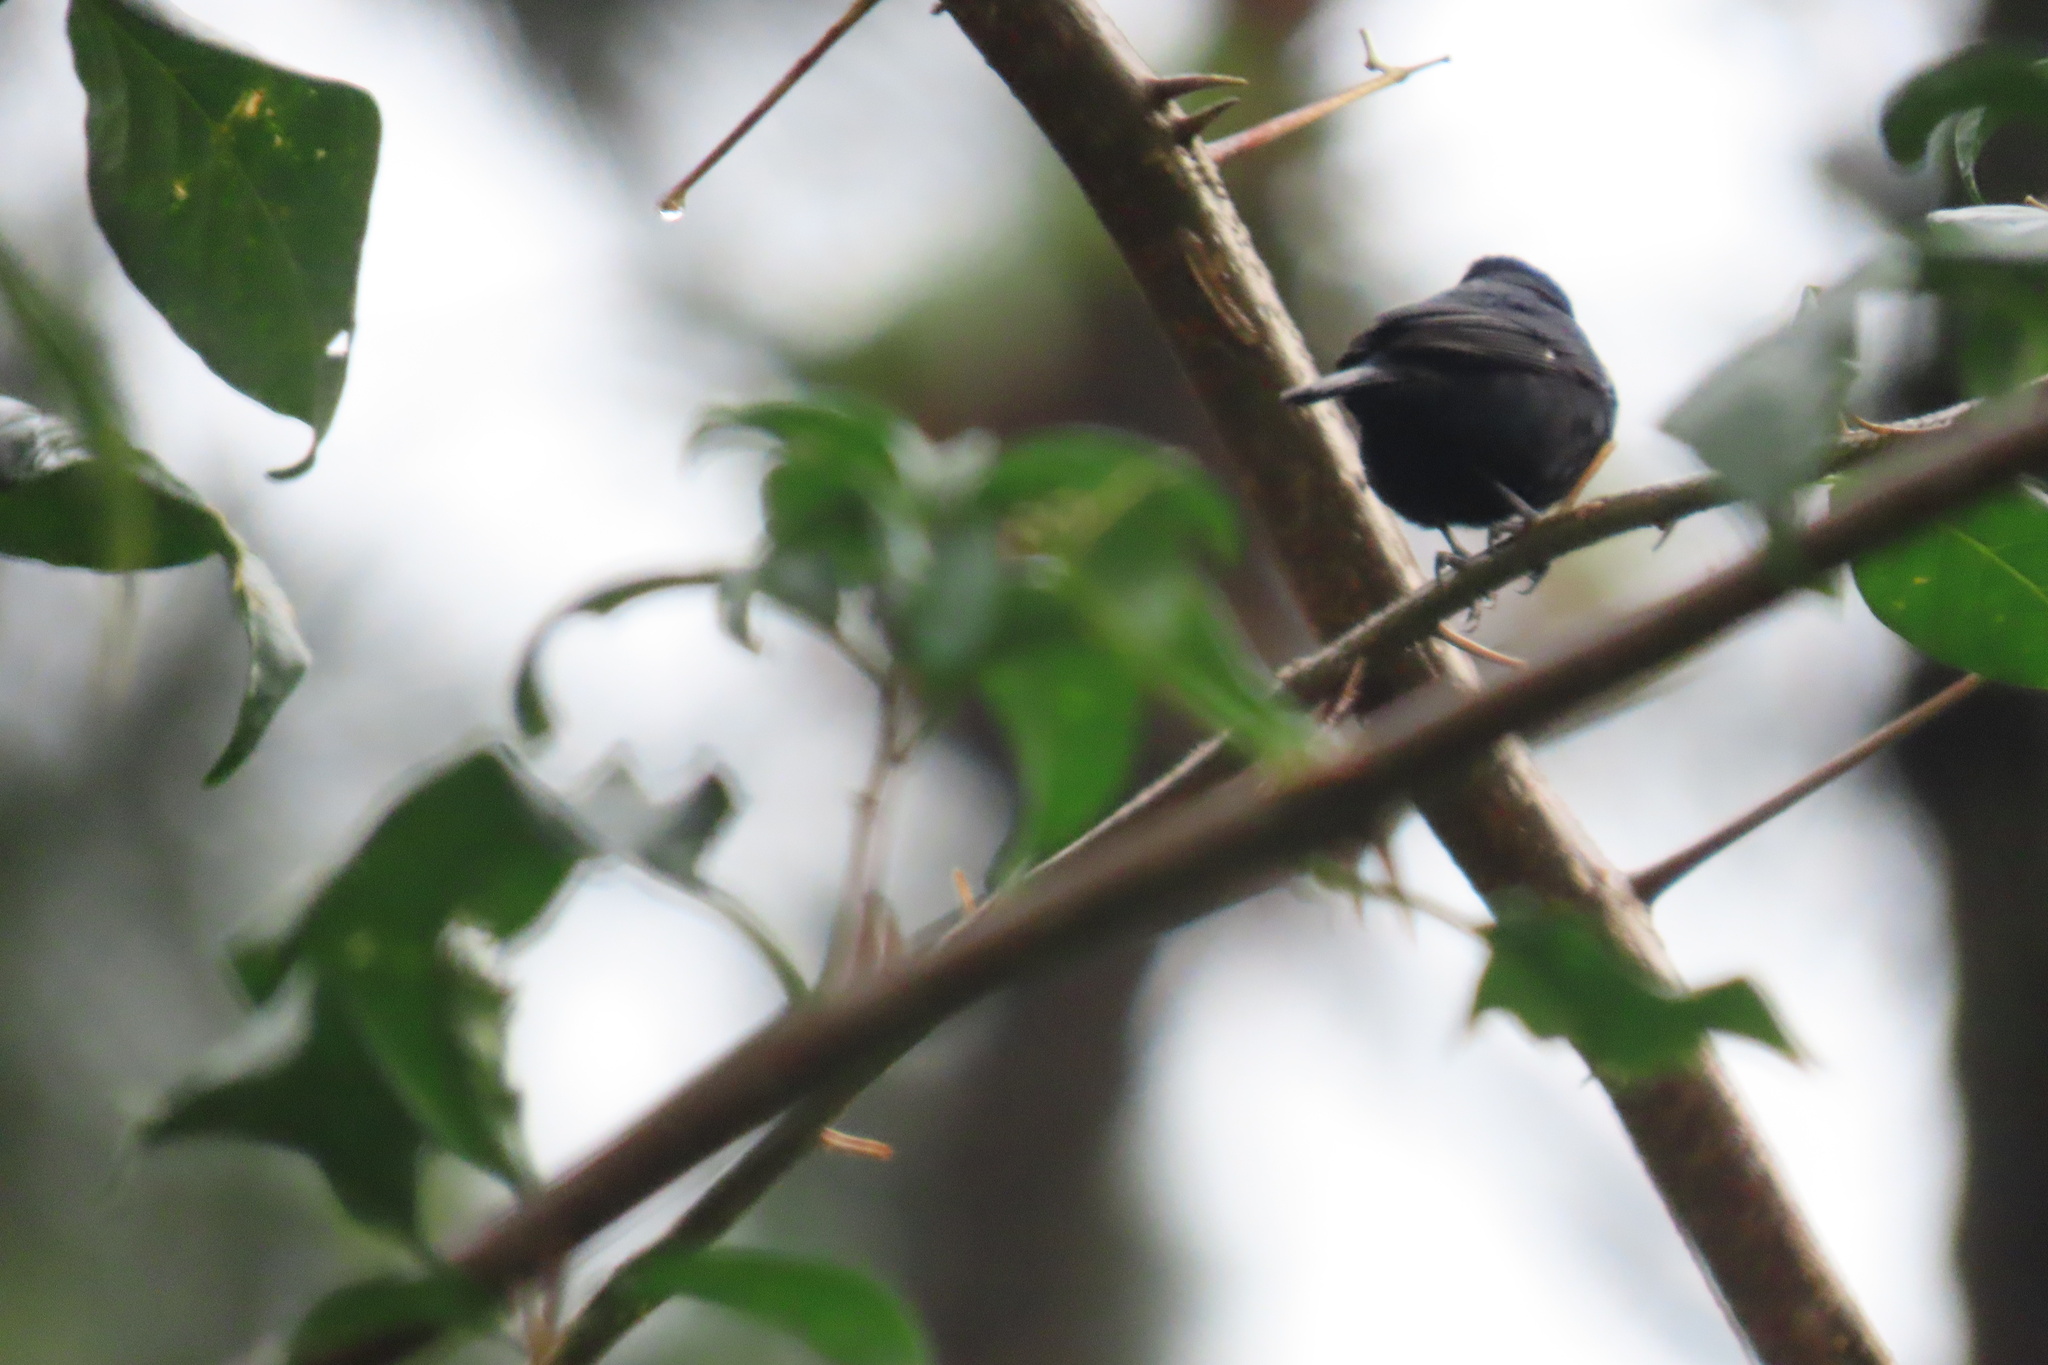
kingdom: Animalia
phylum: Chordata
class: Aves
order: Passeriformes
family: Thraupidae
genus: Sporophila
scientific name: Sporophila corvina
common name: Variable seedeater
